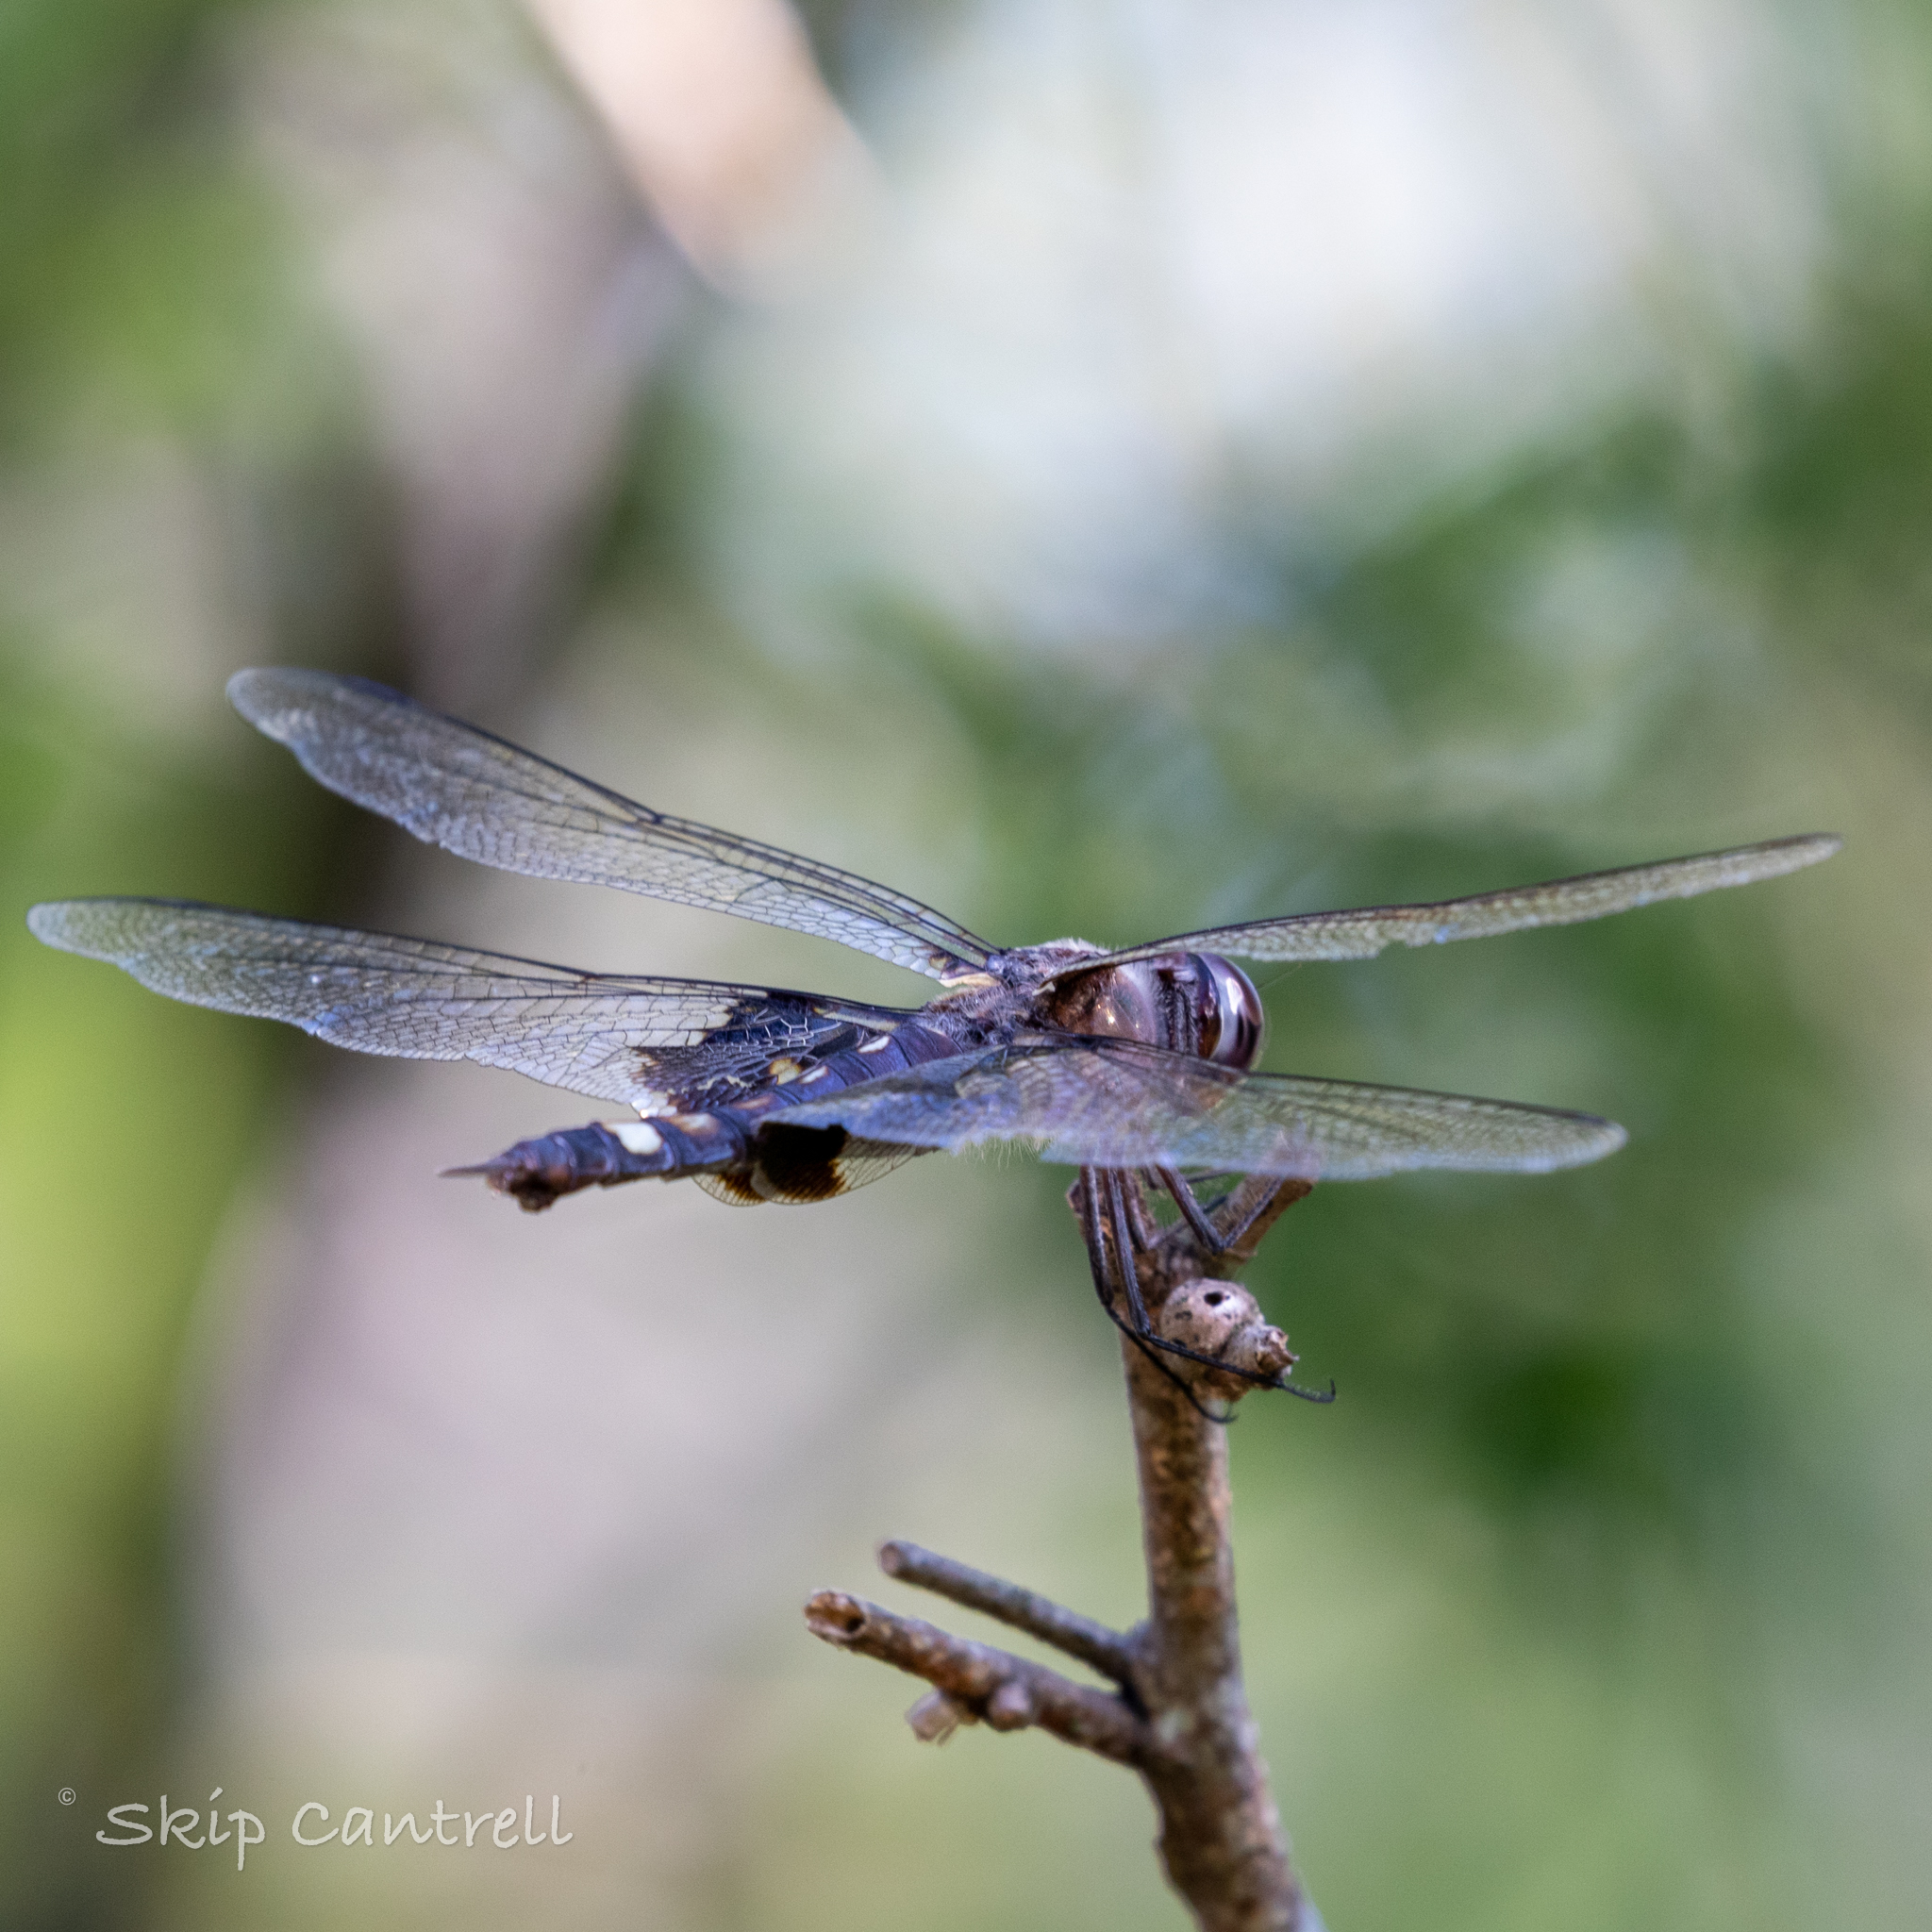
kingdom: Animalia
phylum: Arthropoda
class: Insecta
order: Odonata
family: Libellulidae
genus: Tramea
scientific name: Tramea lacerata
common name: Black saddlebags
